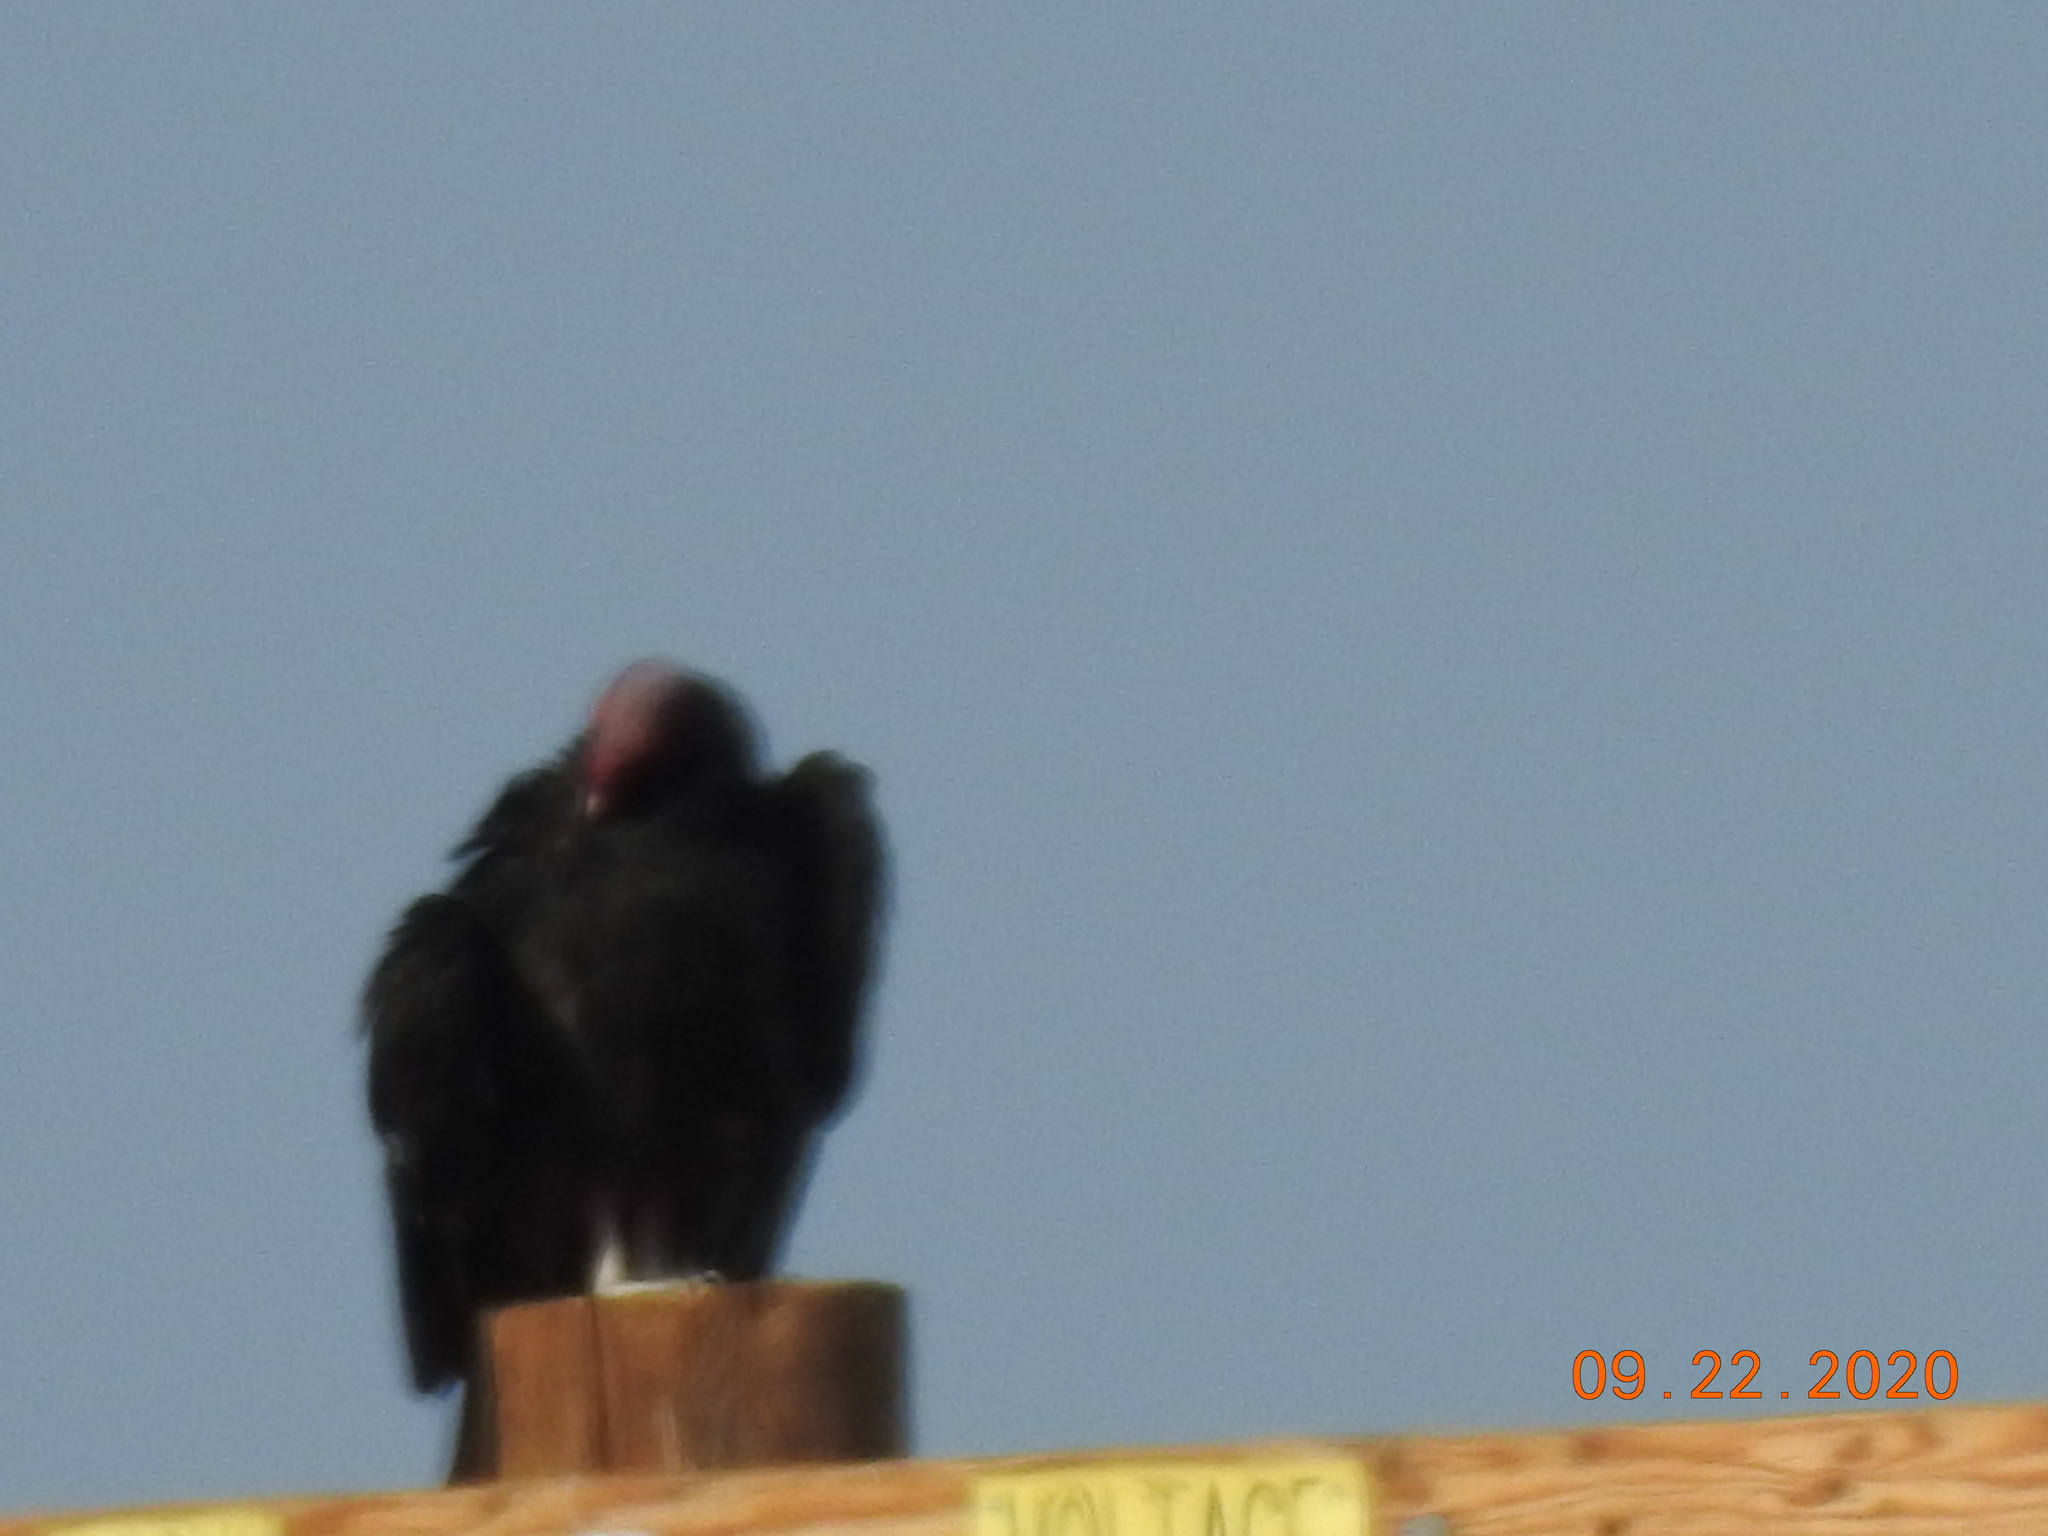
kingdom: Animalia
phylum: Chordata
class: Aves
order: Accipitriformes
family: Cathartidae
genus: Cathartes
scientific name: Cathartes aura
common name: Turkey vulture
